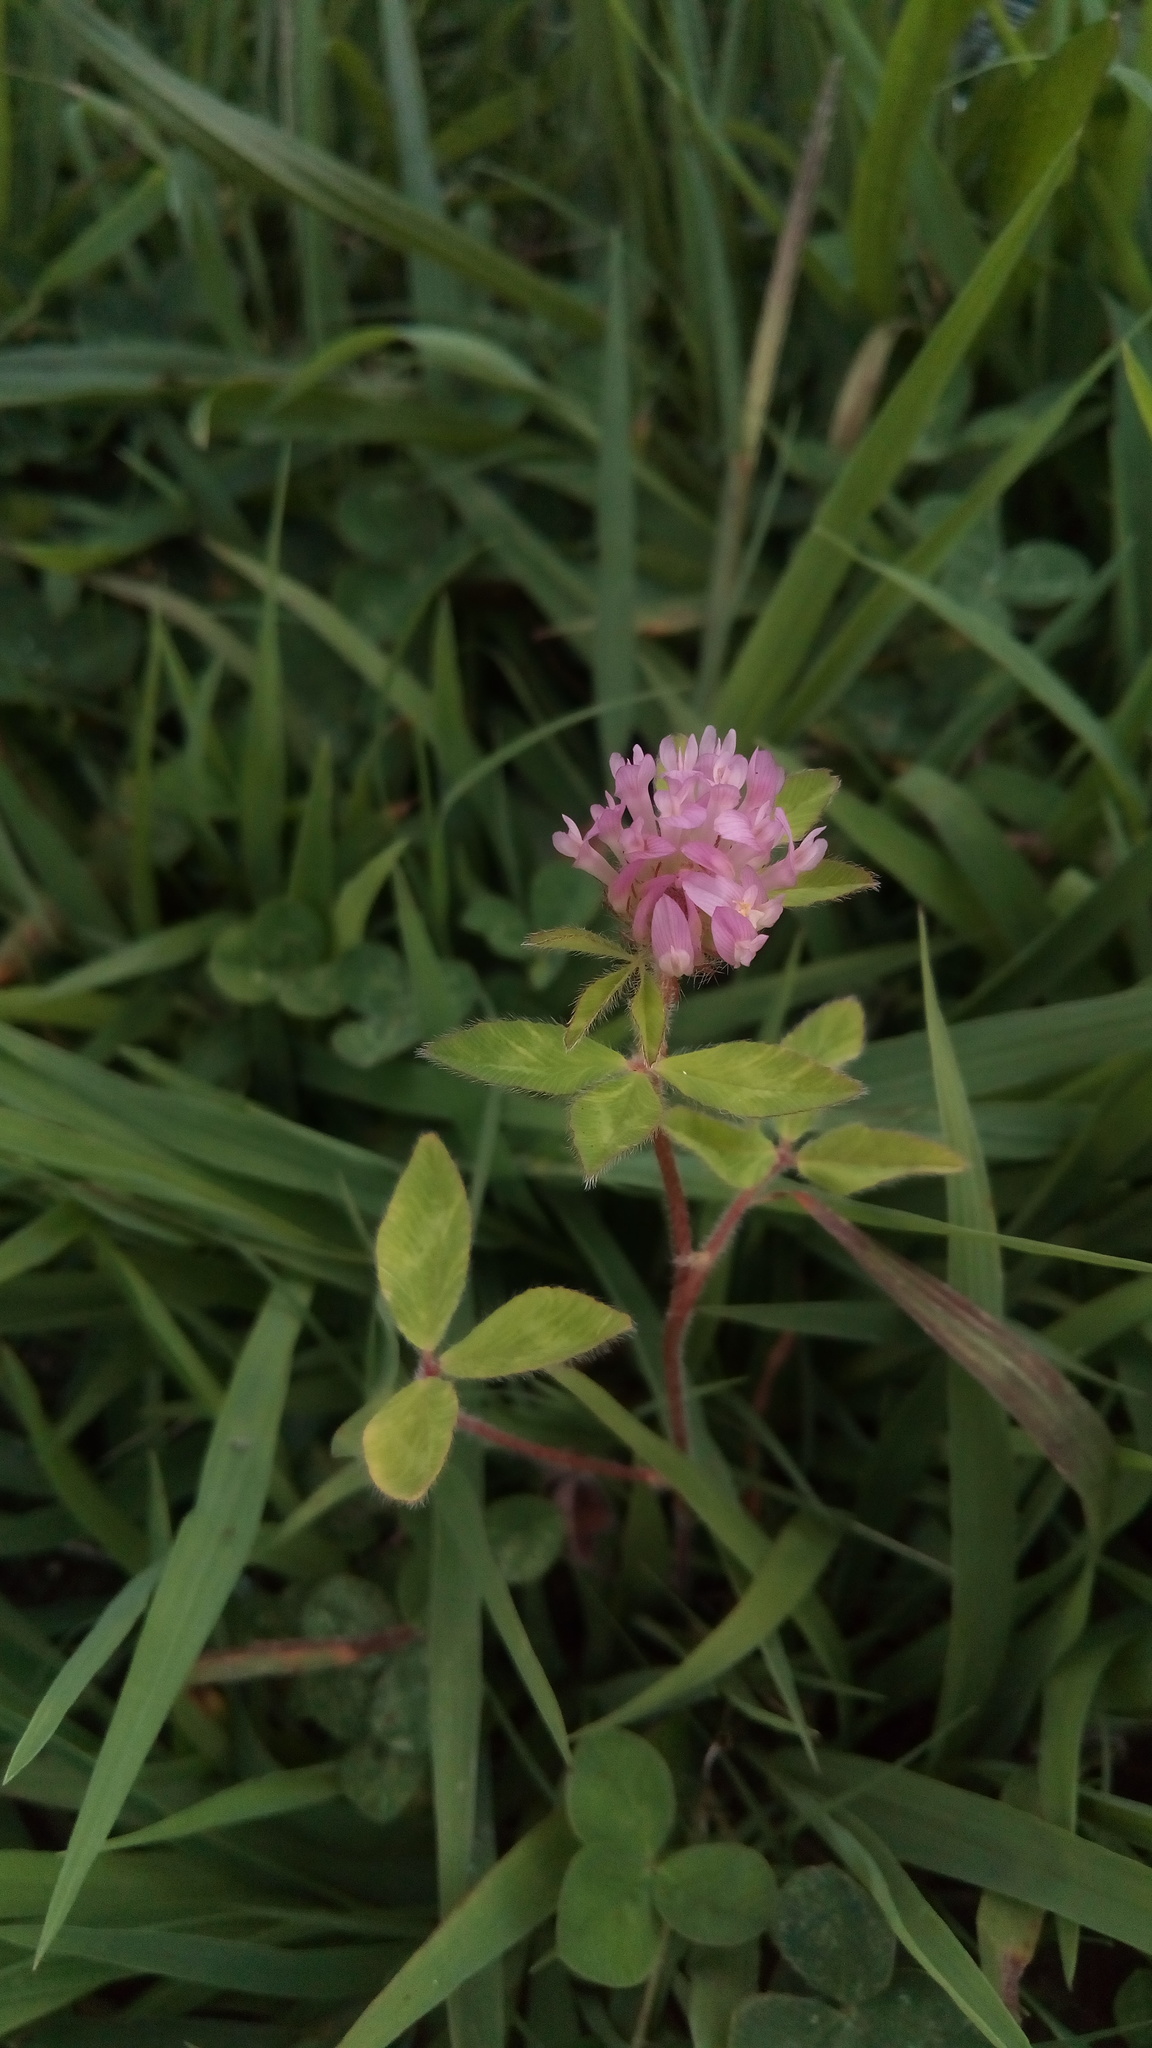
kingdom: Plantae
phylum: Tracheophyta
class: Magnoliopsida
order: Fabales
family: Fabaceae
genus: Trifolium
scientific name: Trifolium pratense
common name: Red clover
